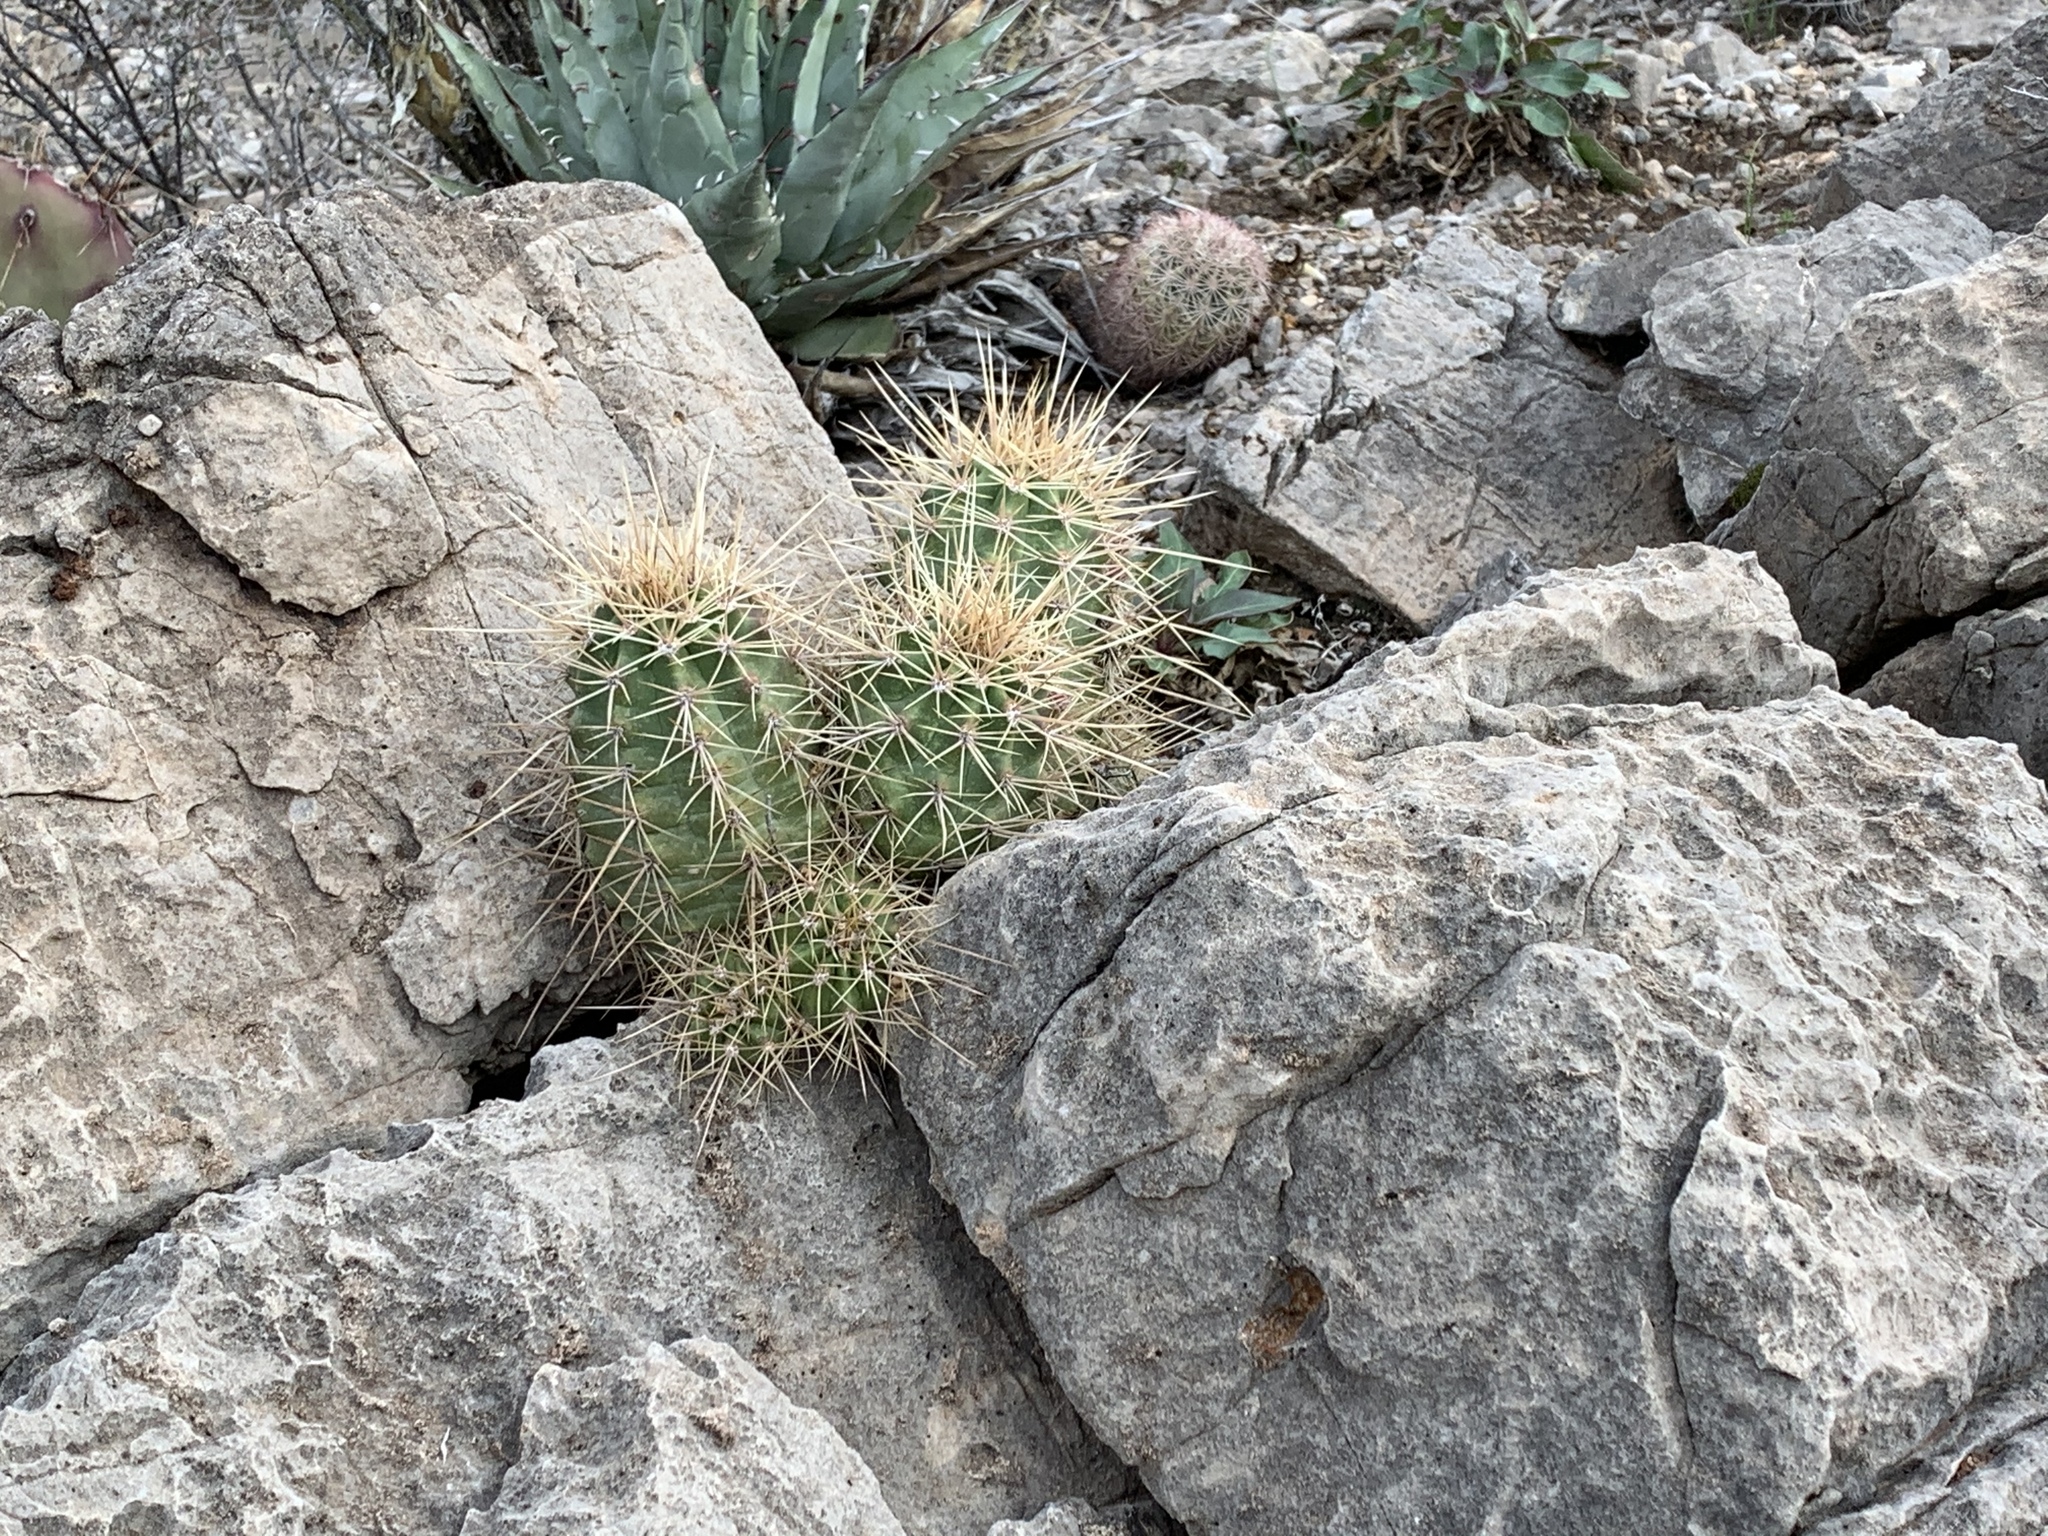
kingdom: Plantae
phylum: Tracheophyta
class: Magnoliopsida
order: Caryophyllales
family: Cactaceae
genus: Echinocereus
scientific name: Echinocereus coccineus
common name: Scarlet hedgehog cactus
